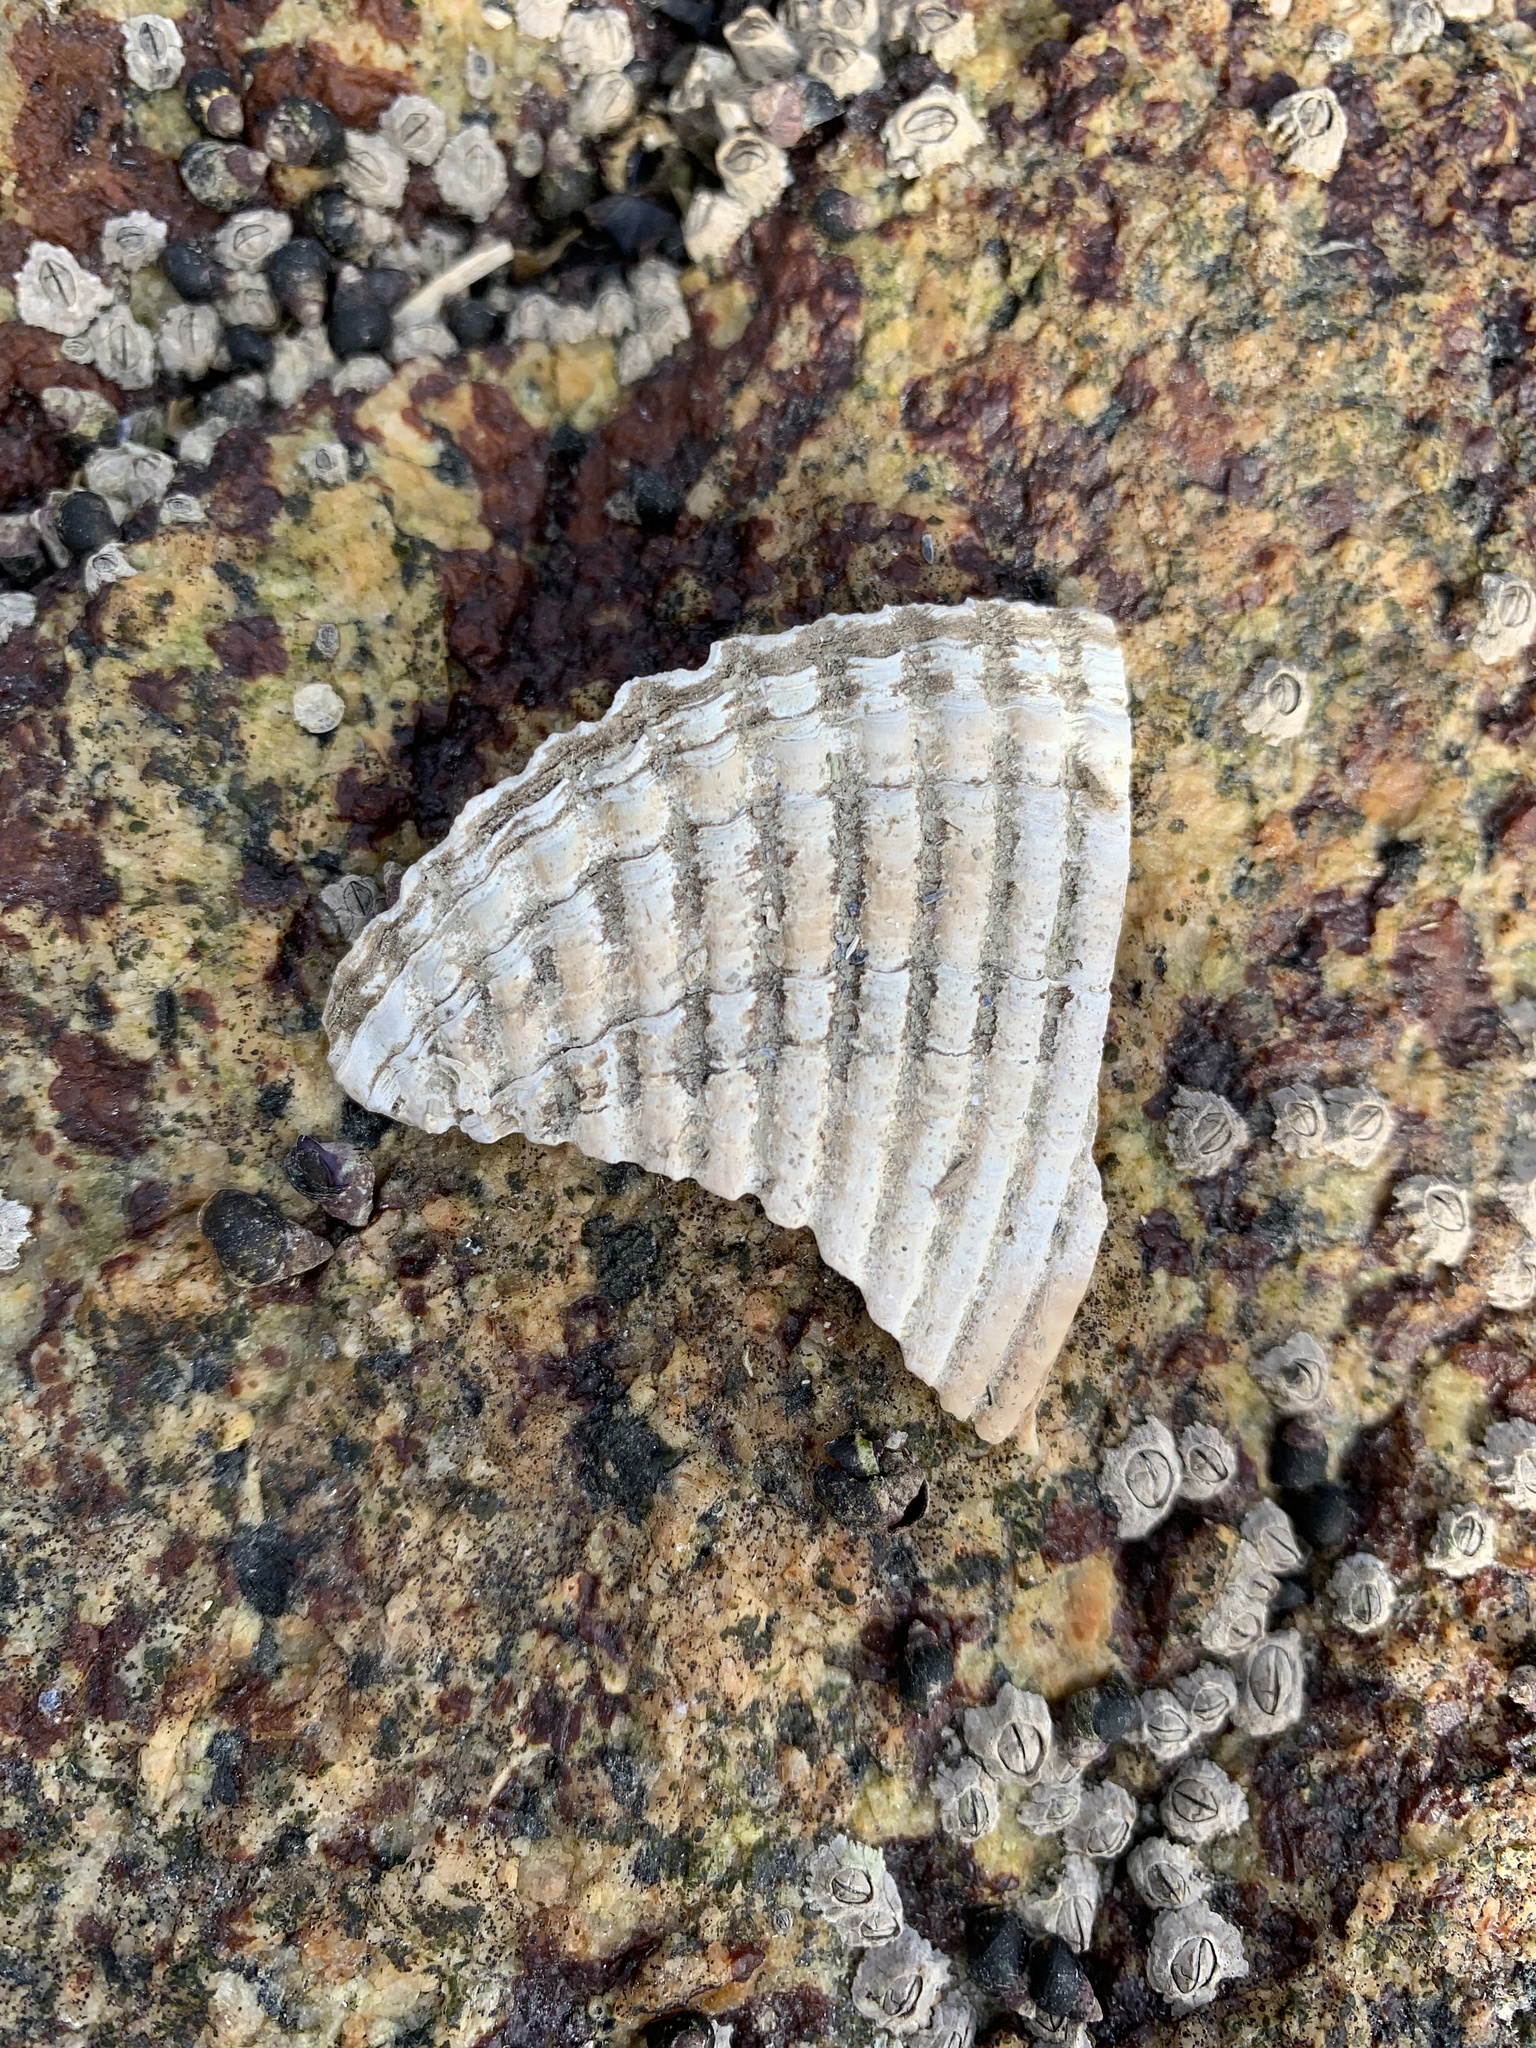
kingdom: Animalia
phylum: Mollusca
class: Bivalvia
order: Cardiida
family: Cardiidae
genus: Clinocardium
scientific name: Clinocardium nuttallii
